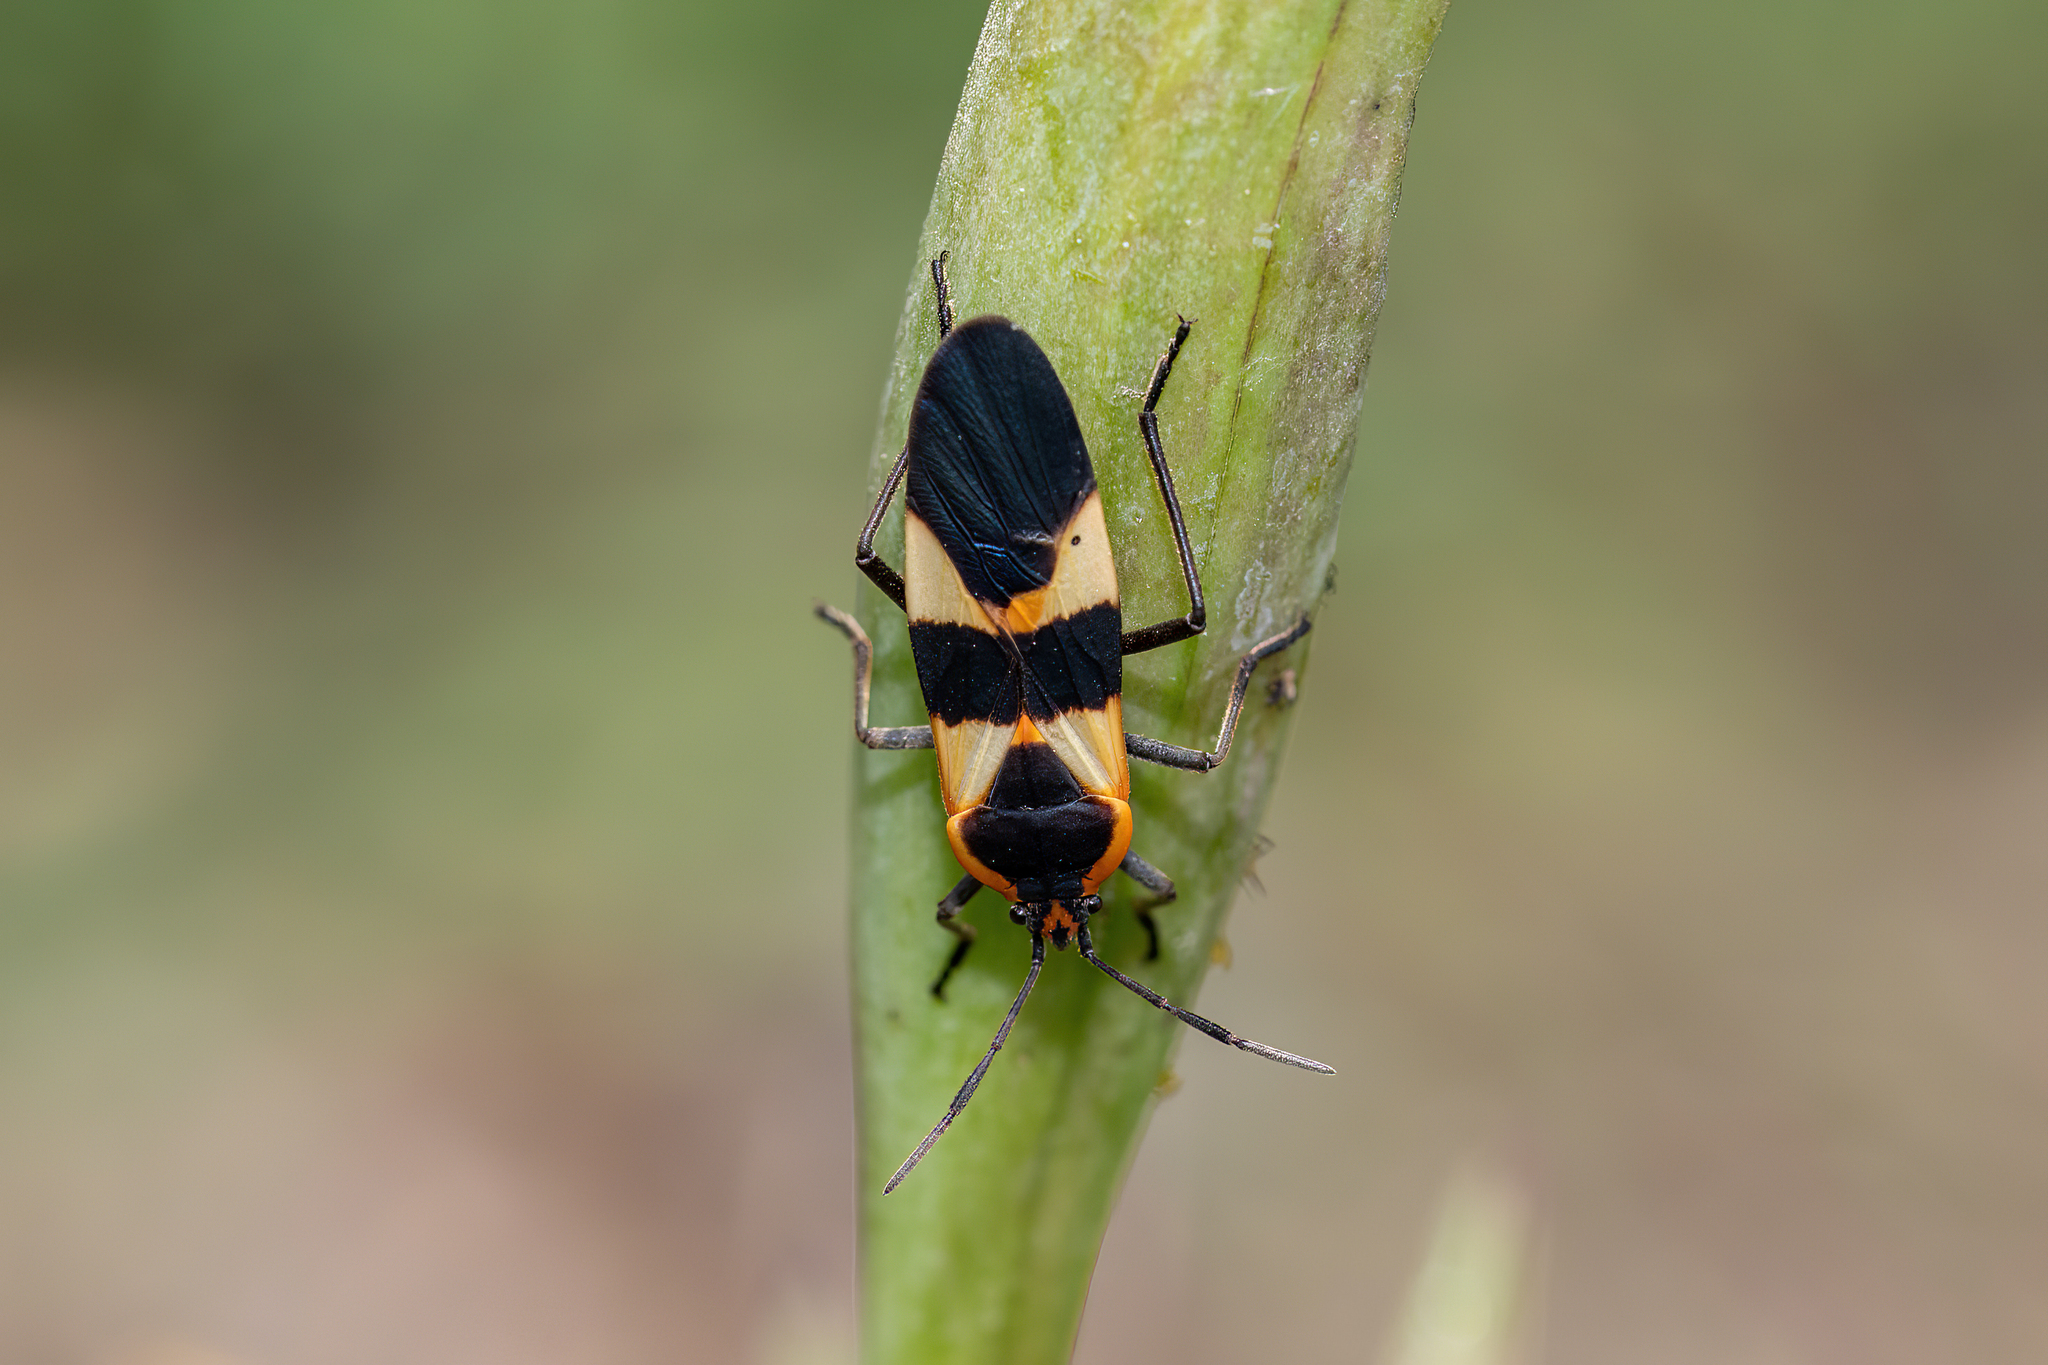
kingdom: Animalia
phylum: Arthropoda
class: Insecta
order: Hemiptera
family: Lygaeidae
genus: Oncopeltus
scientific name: Oncopeltus fasciatus
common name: Large milkweed bug
